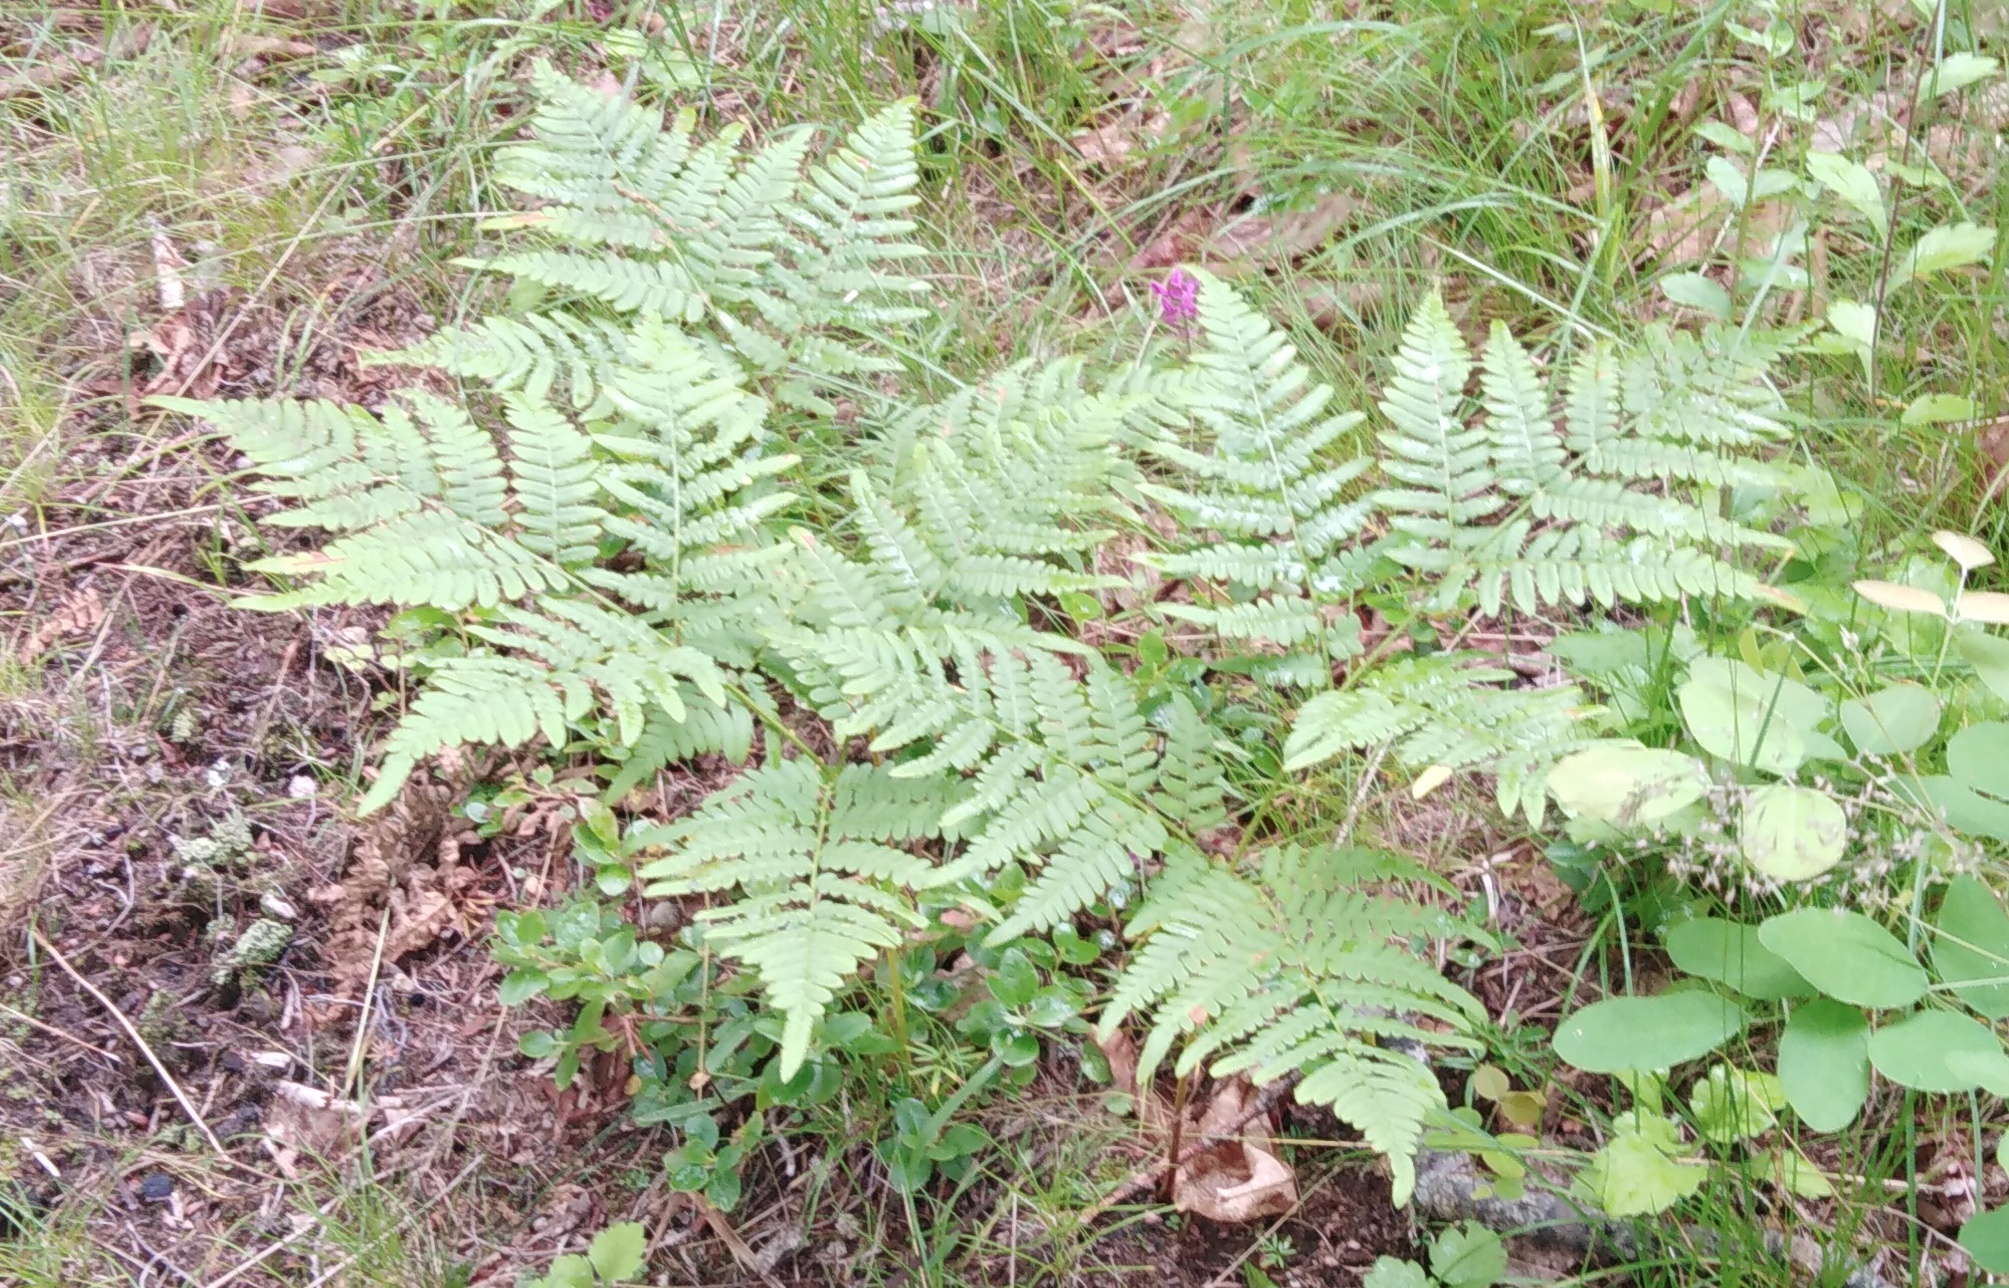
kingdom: Plantae
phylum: Tracheophyta
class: Polypodiopsida
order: Polypodiales
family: Dennstaedtiaceae
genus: Pteridium
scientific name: Pteridium aquilinum
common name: Bracken
